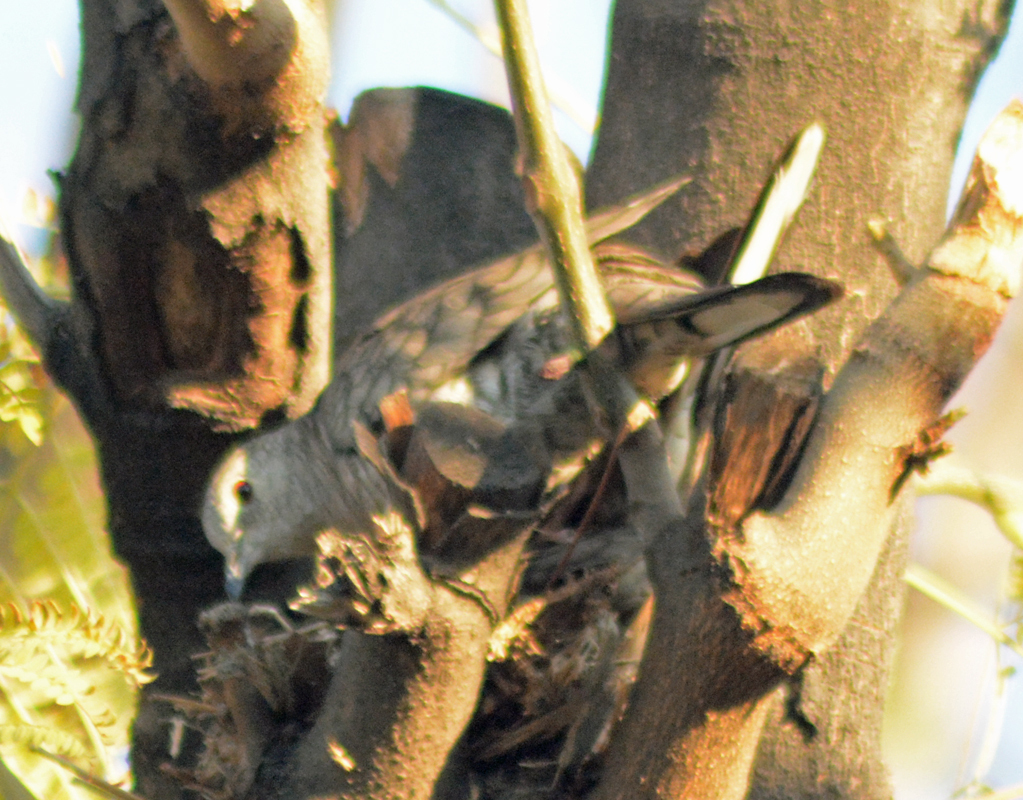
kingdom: Animalia
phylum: Chordata
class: Aves
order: Columbiformes
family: Columbidae
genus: Columbina
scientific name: Columbina inca
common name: Inca dove
